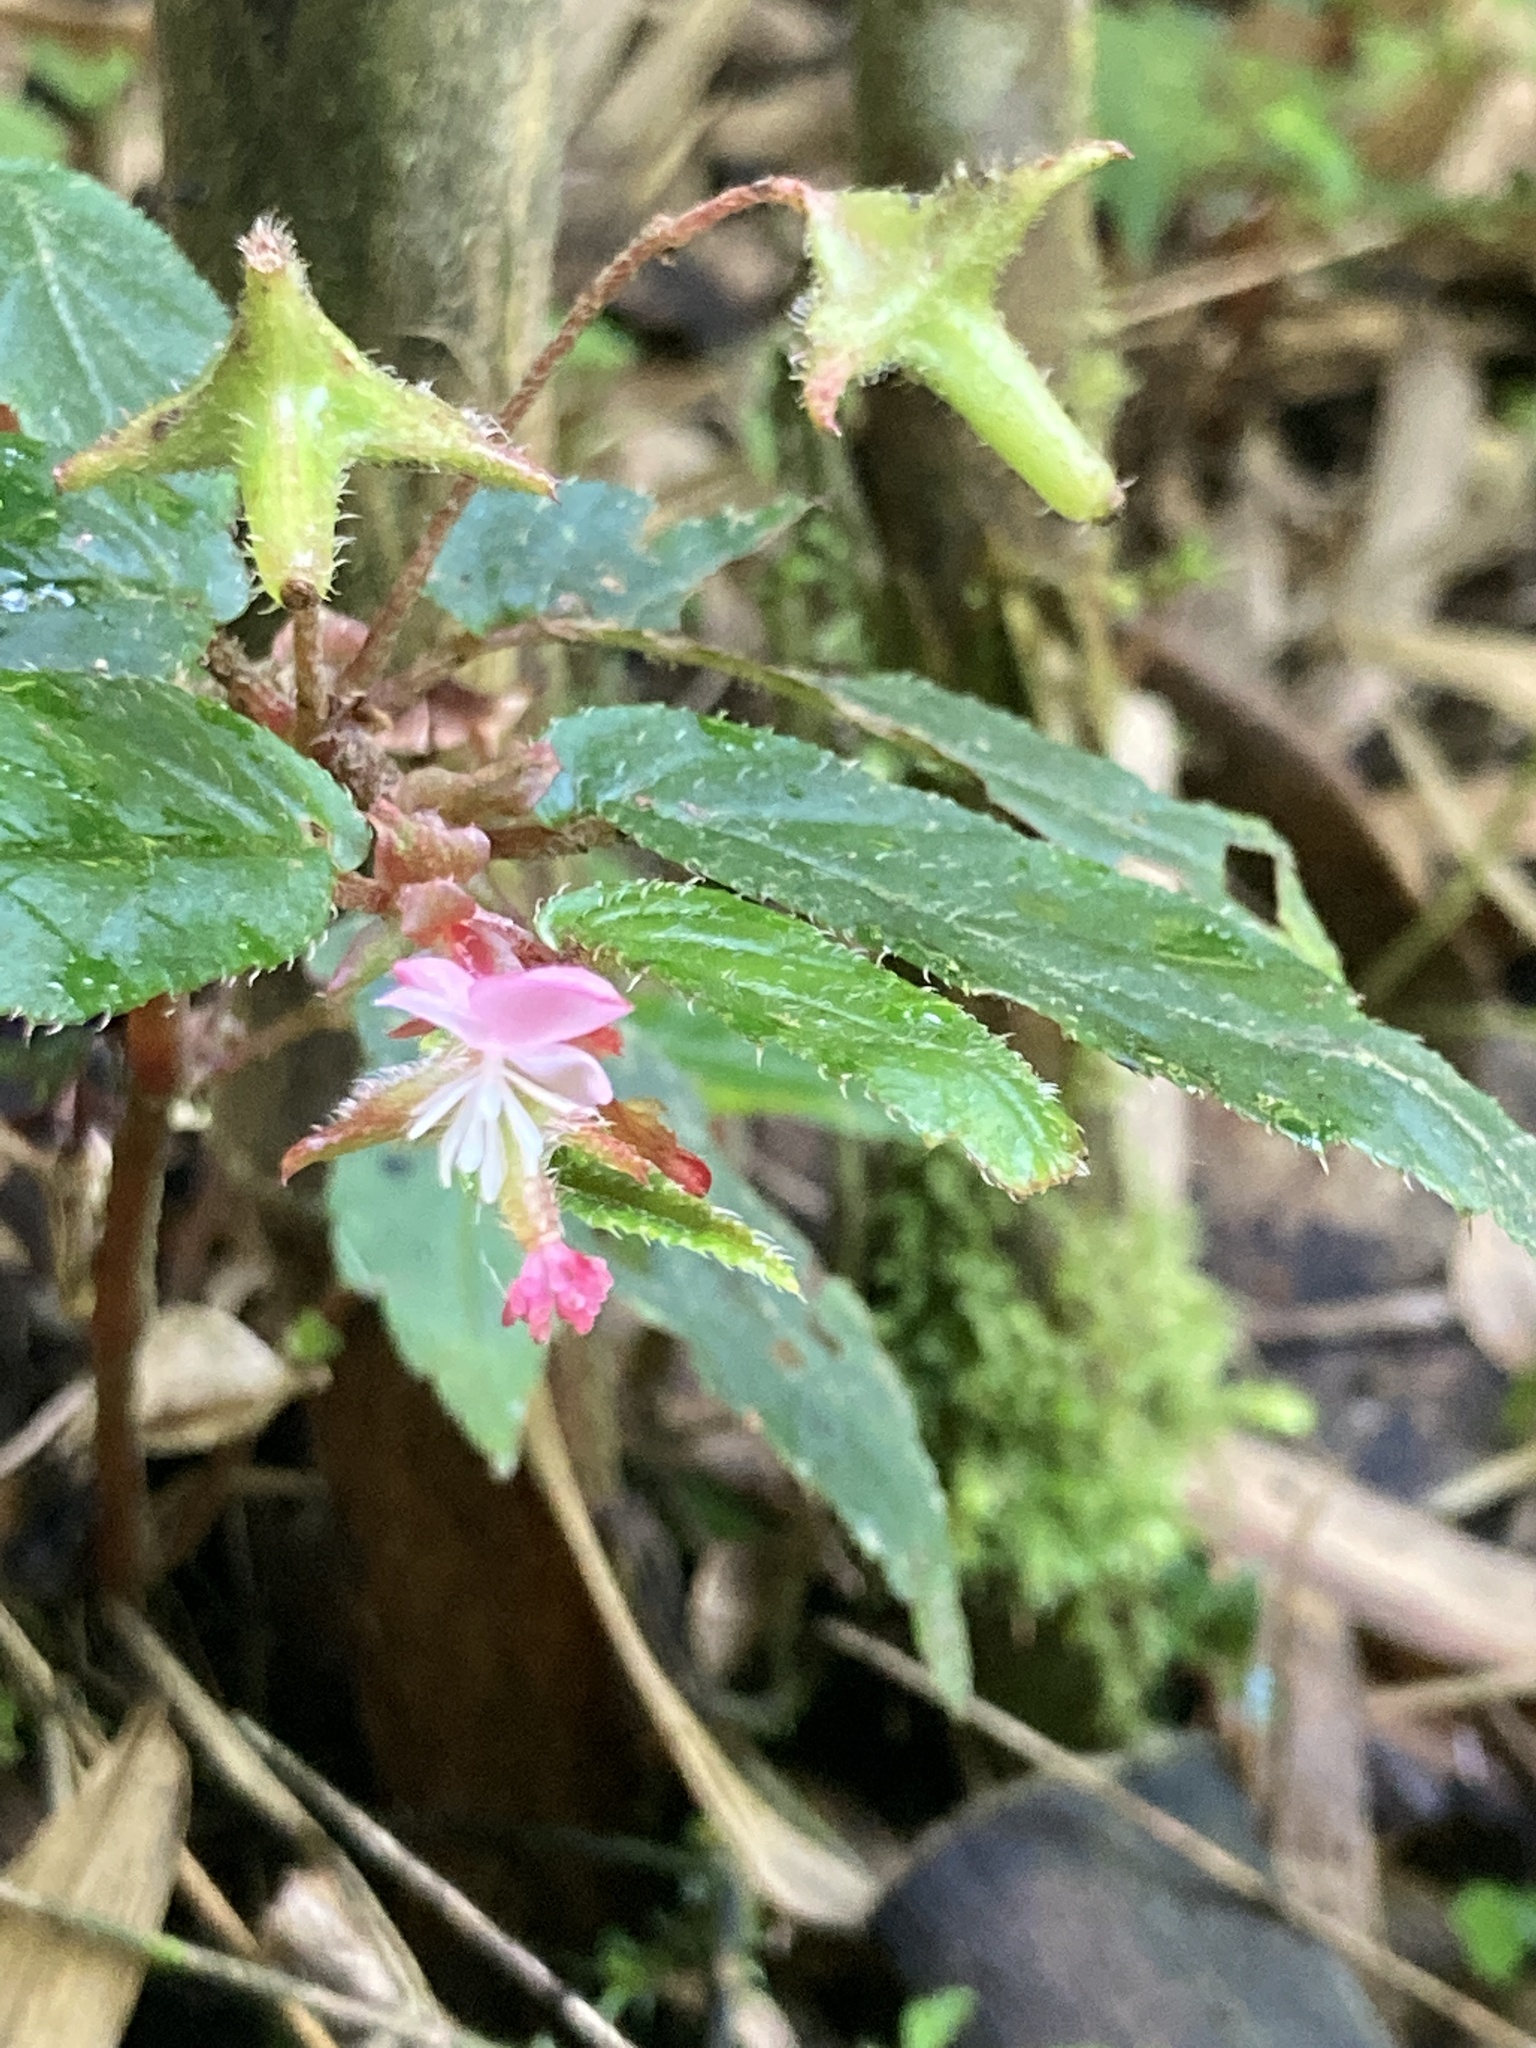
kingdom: Plantae
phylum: Tracheophyta
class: Magnoliopsida
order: Cucurbitales
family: Begoniaceae
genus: Begonia
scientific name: Begonia urticae
